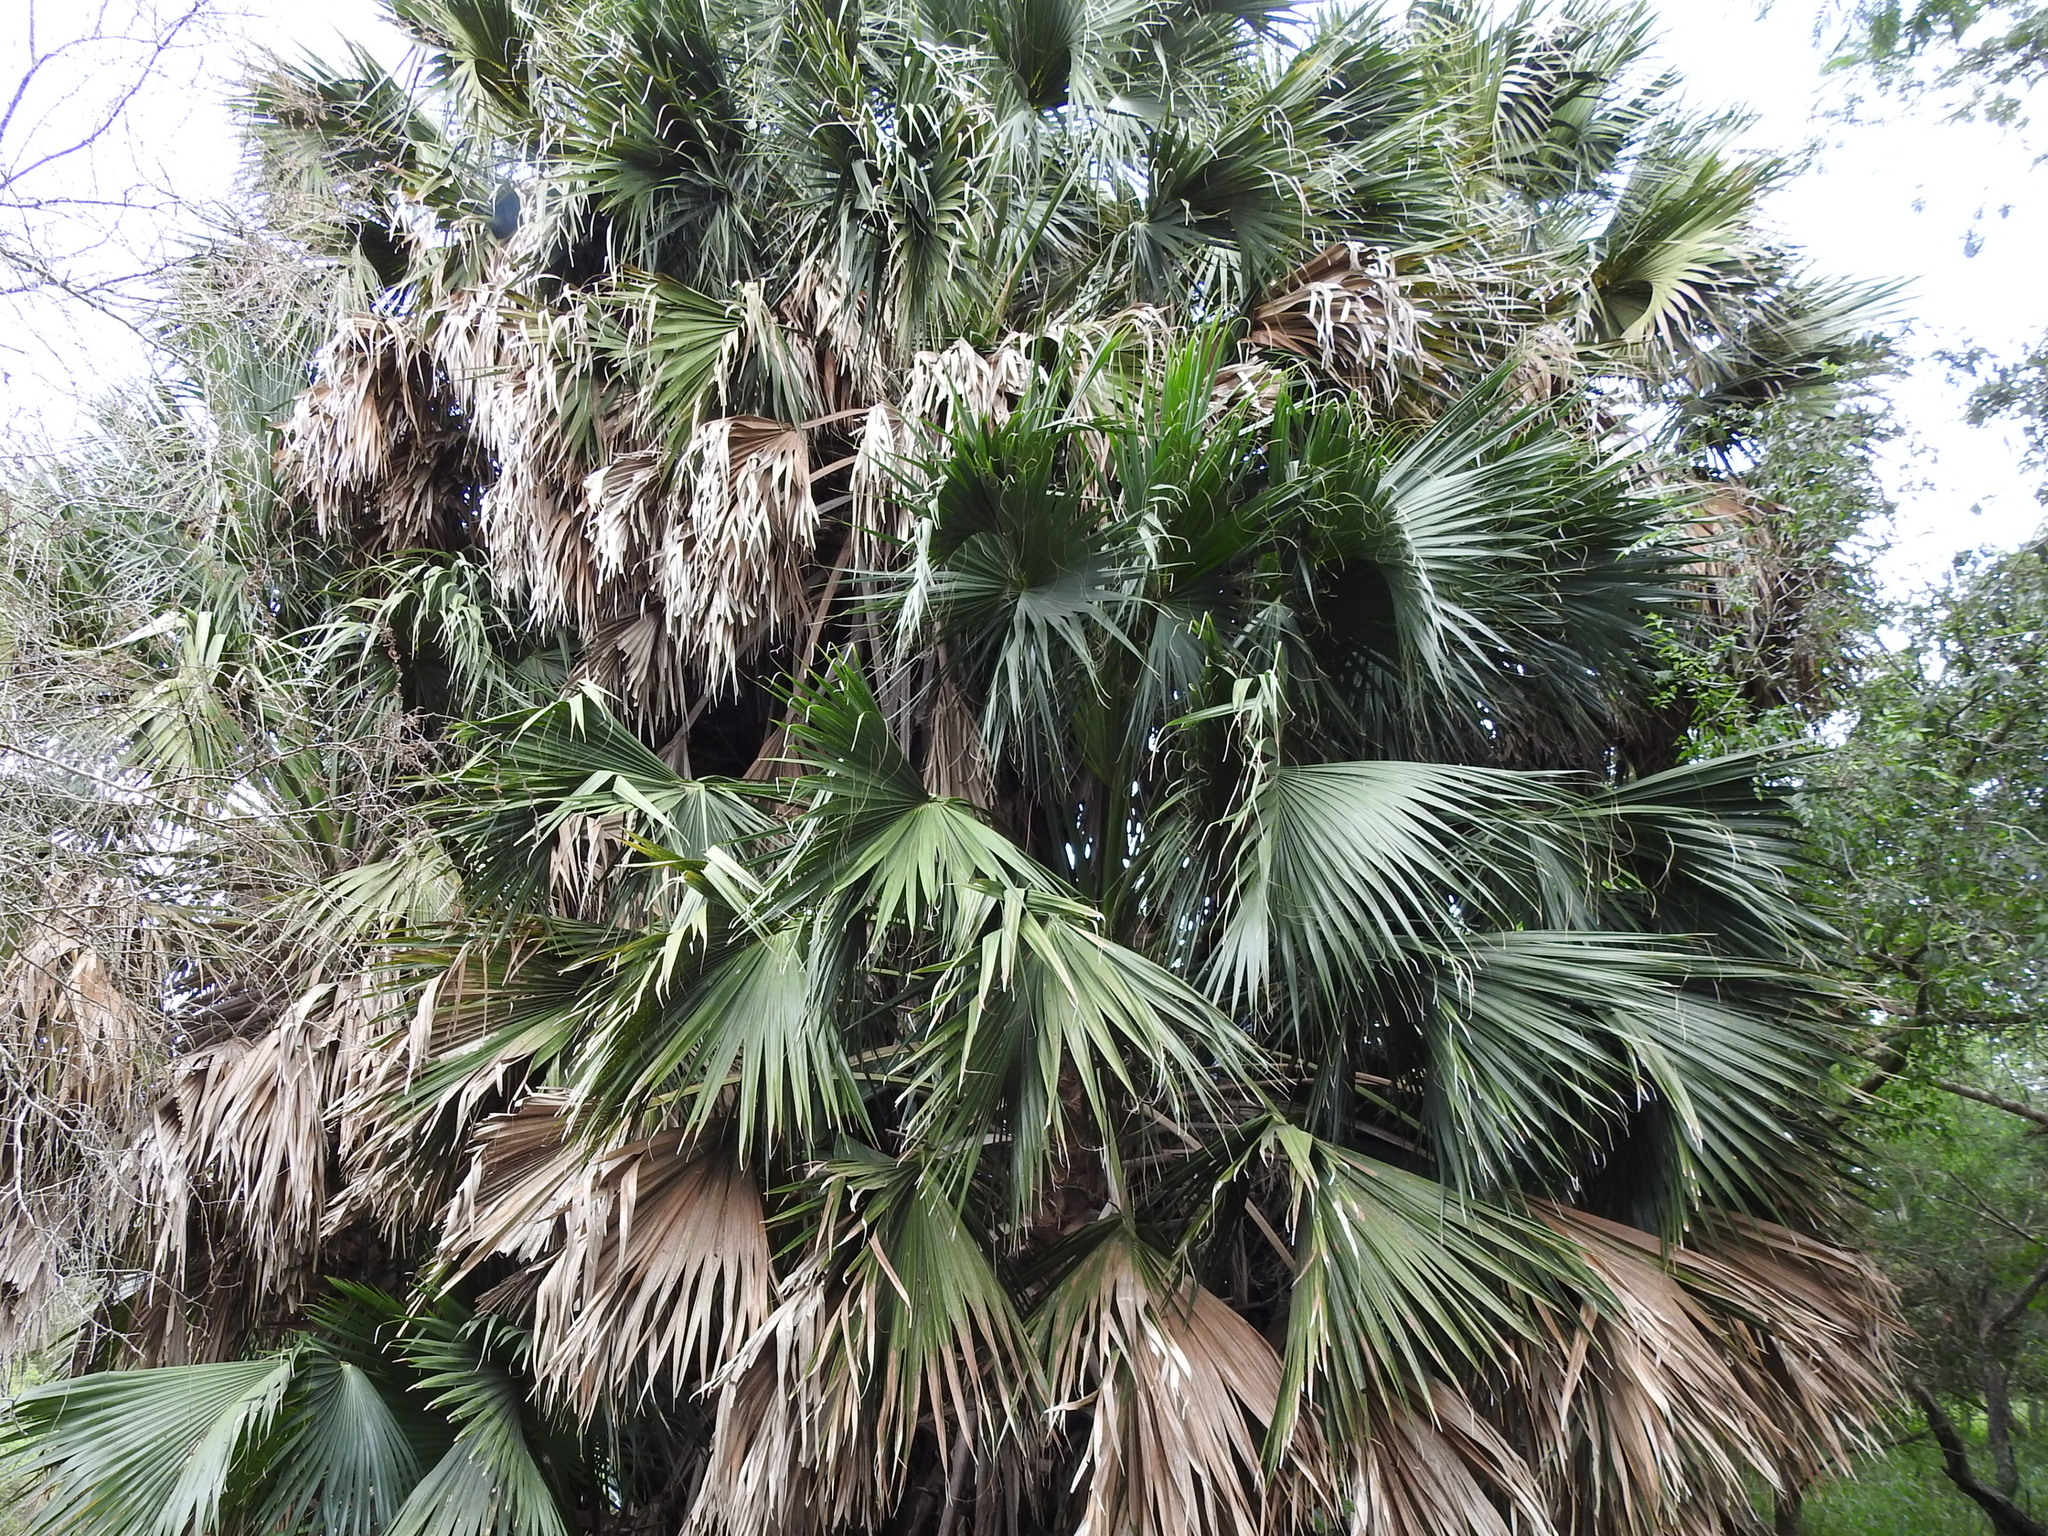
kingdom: Plantae
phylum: Tracheophyta
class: Liliopsida
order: Arecales
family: Arecaceae
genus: Sabal
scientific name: Sabal mexicana
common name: Texas palmetto
